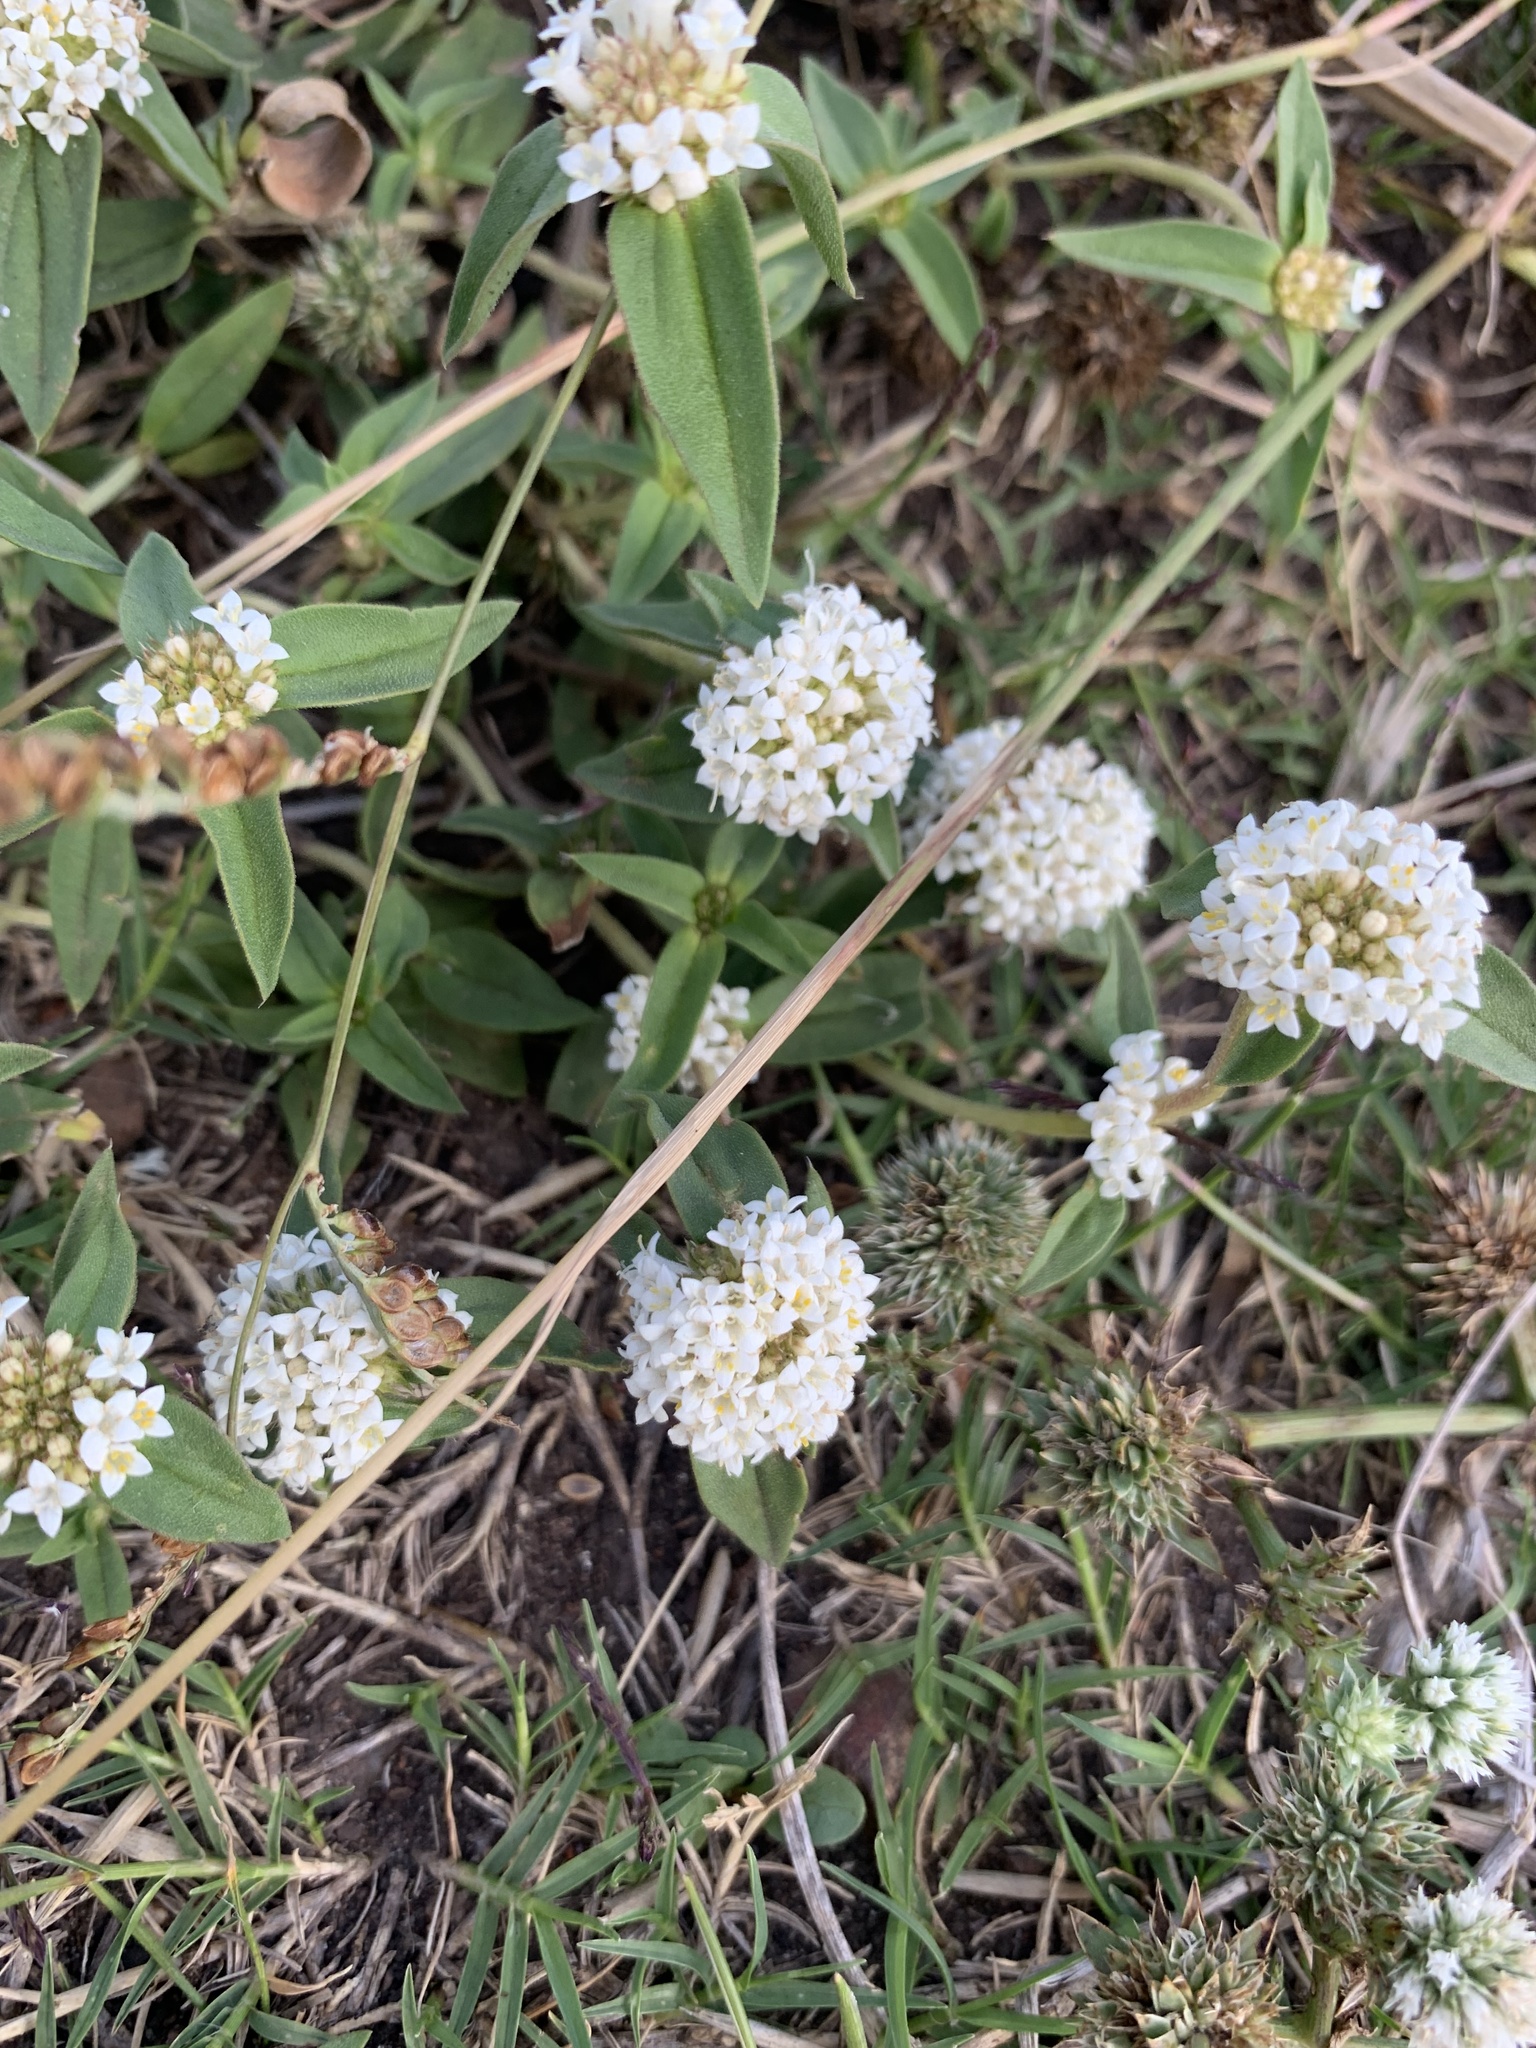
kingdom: Plantae
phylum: Tracheophyta
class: Magnoliopsida
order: Gentianales
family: Rubiaceae
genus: Mitracarpus
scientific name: Mitracarpus megapotamicus
